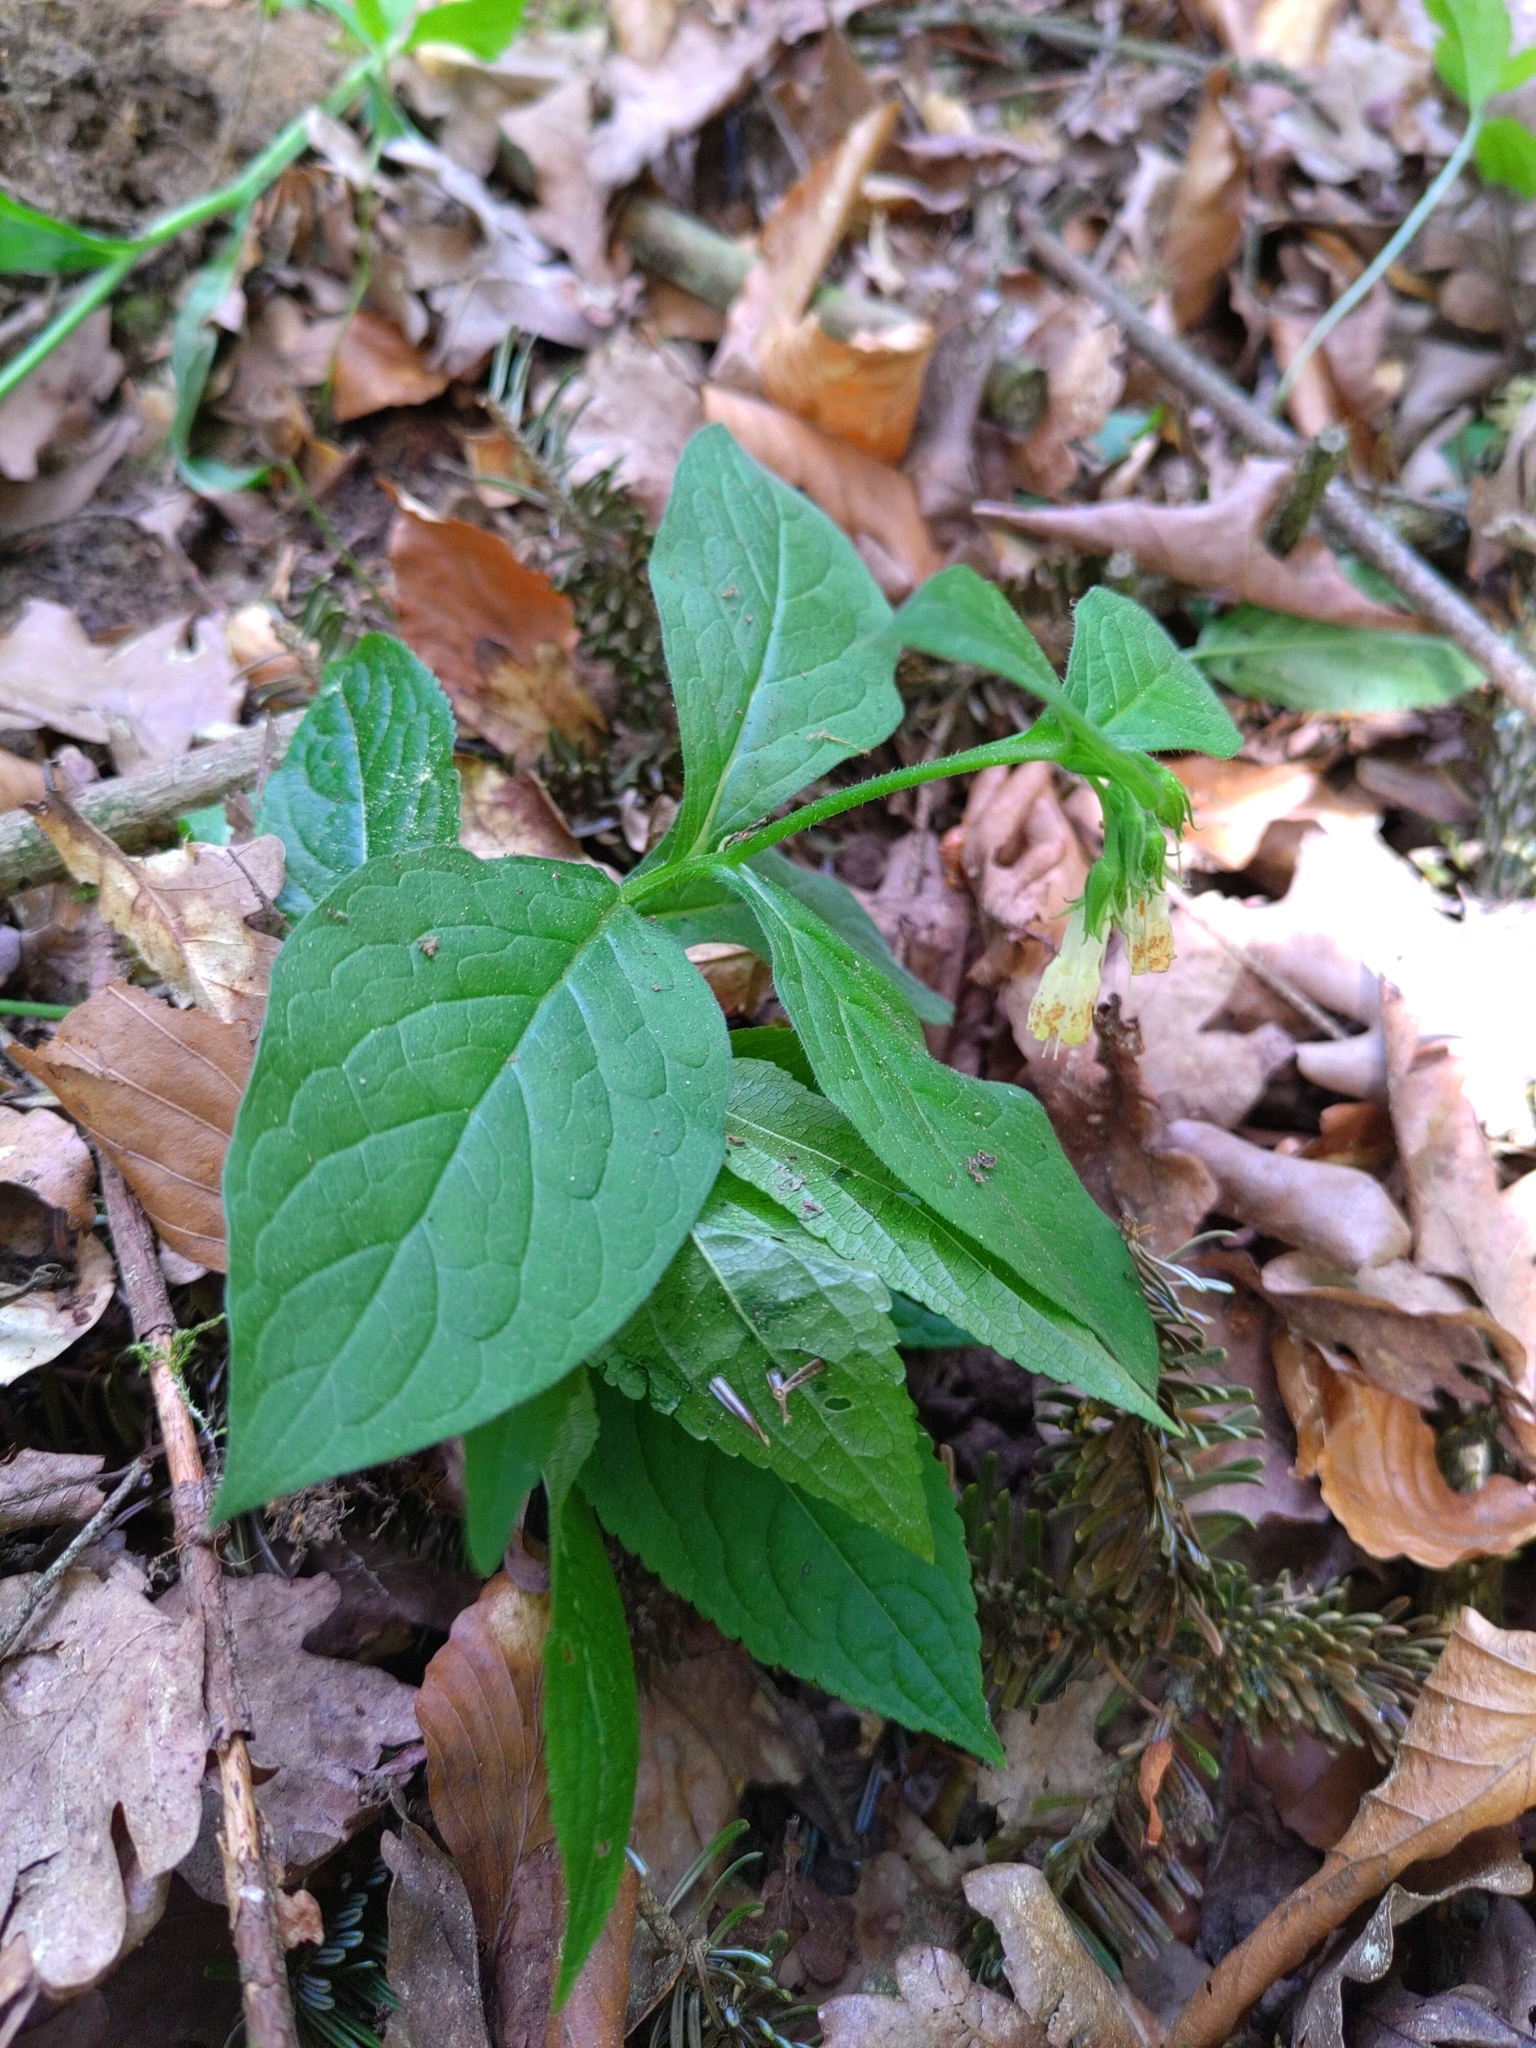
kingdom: Plantae
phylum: Tracheophyta
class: Magnoliopsida
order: Boraginales
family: Boraginaceae
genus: Symphytum
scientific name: Symphytum tuberosum
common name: Tuberous comfrey
